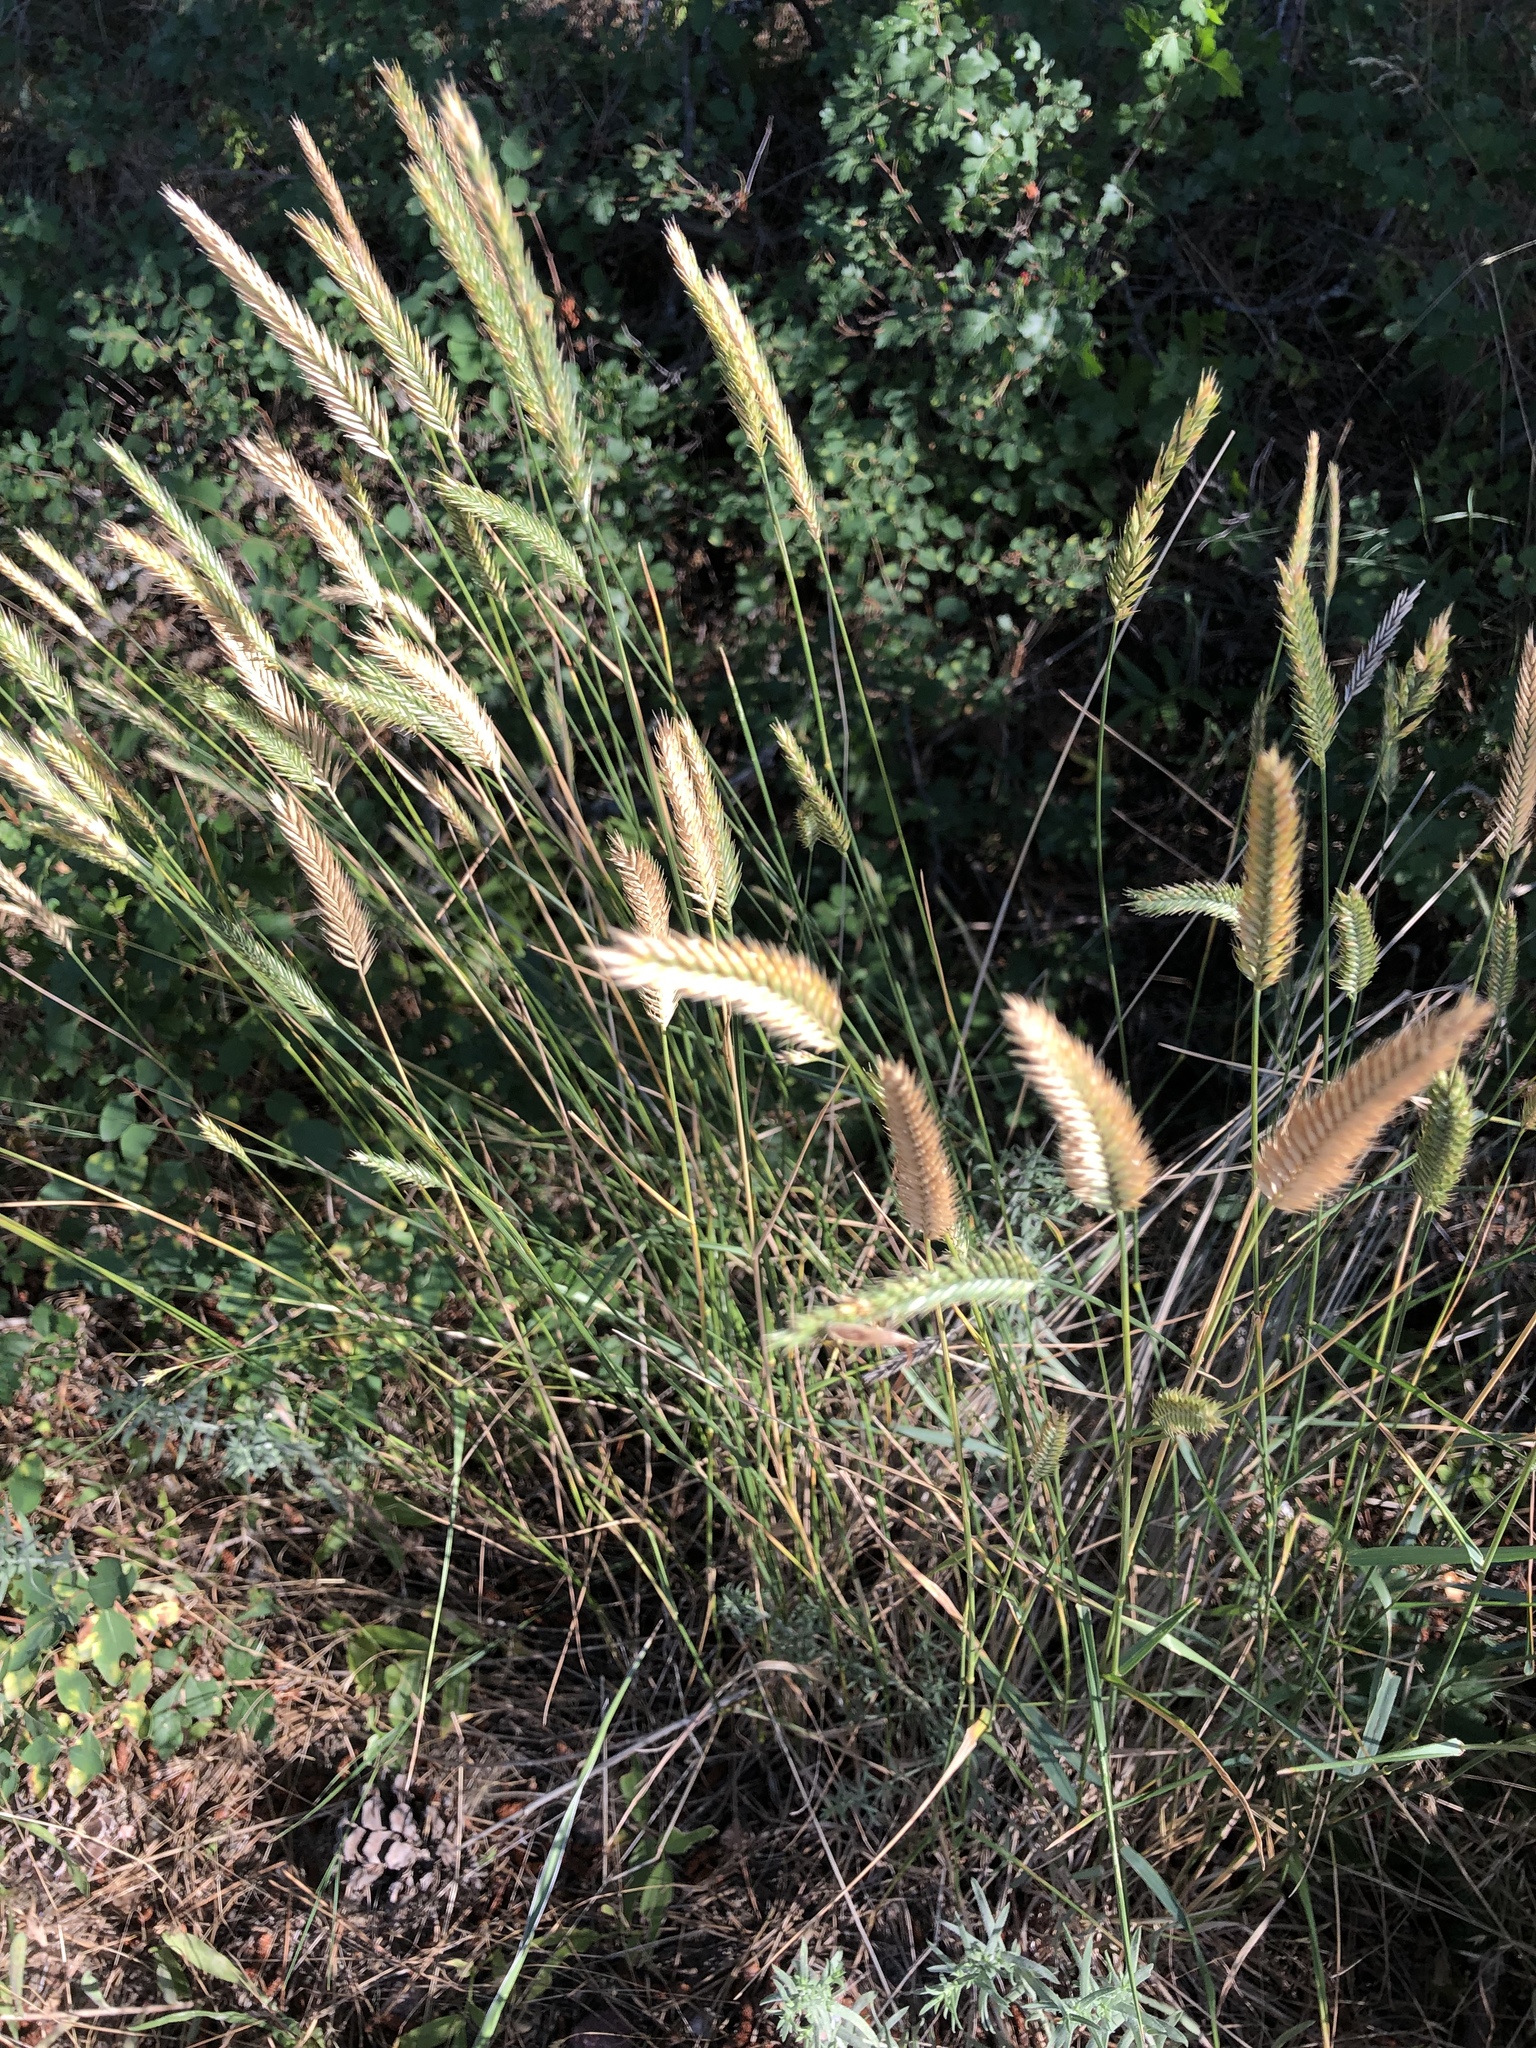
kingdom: Plantae
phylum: Tracheophyta
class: Liliopsida
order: Poales
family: Poaceae
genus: Agropyron
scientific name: Agropyron cristatum
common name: Crested wheatgrass
